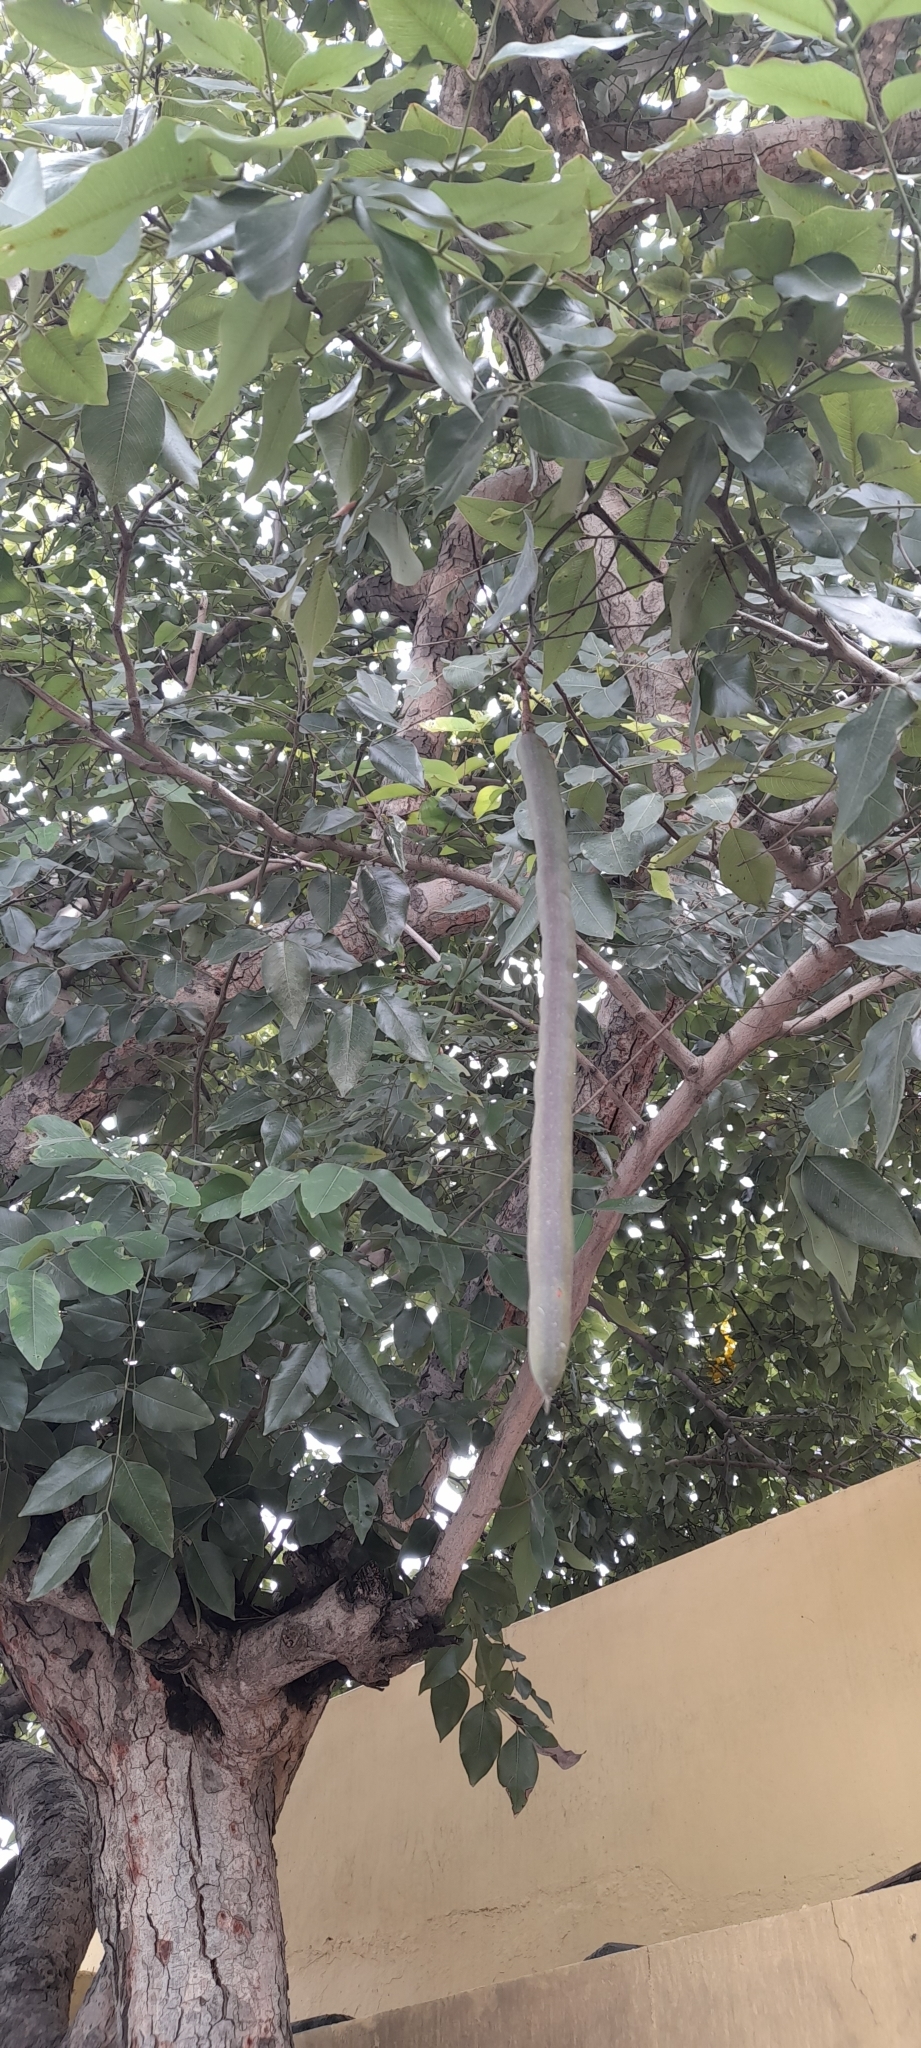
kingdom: Plantae
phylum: Tracheophyta
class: Magnoliopsida
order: Fabales
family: Fabaceae
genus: Cassia
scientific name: Cassia fistula
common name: Golden shower
